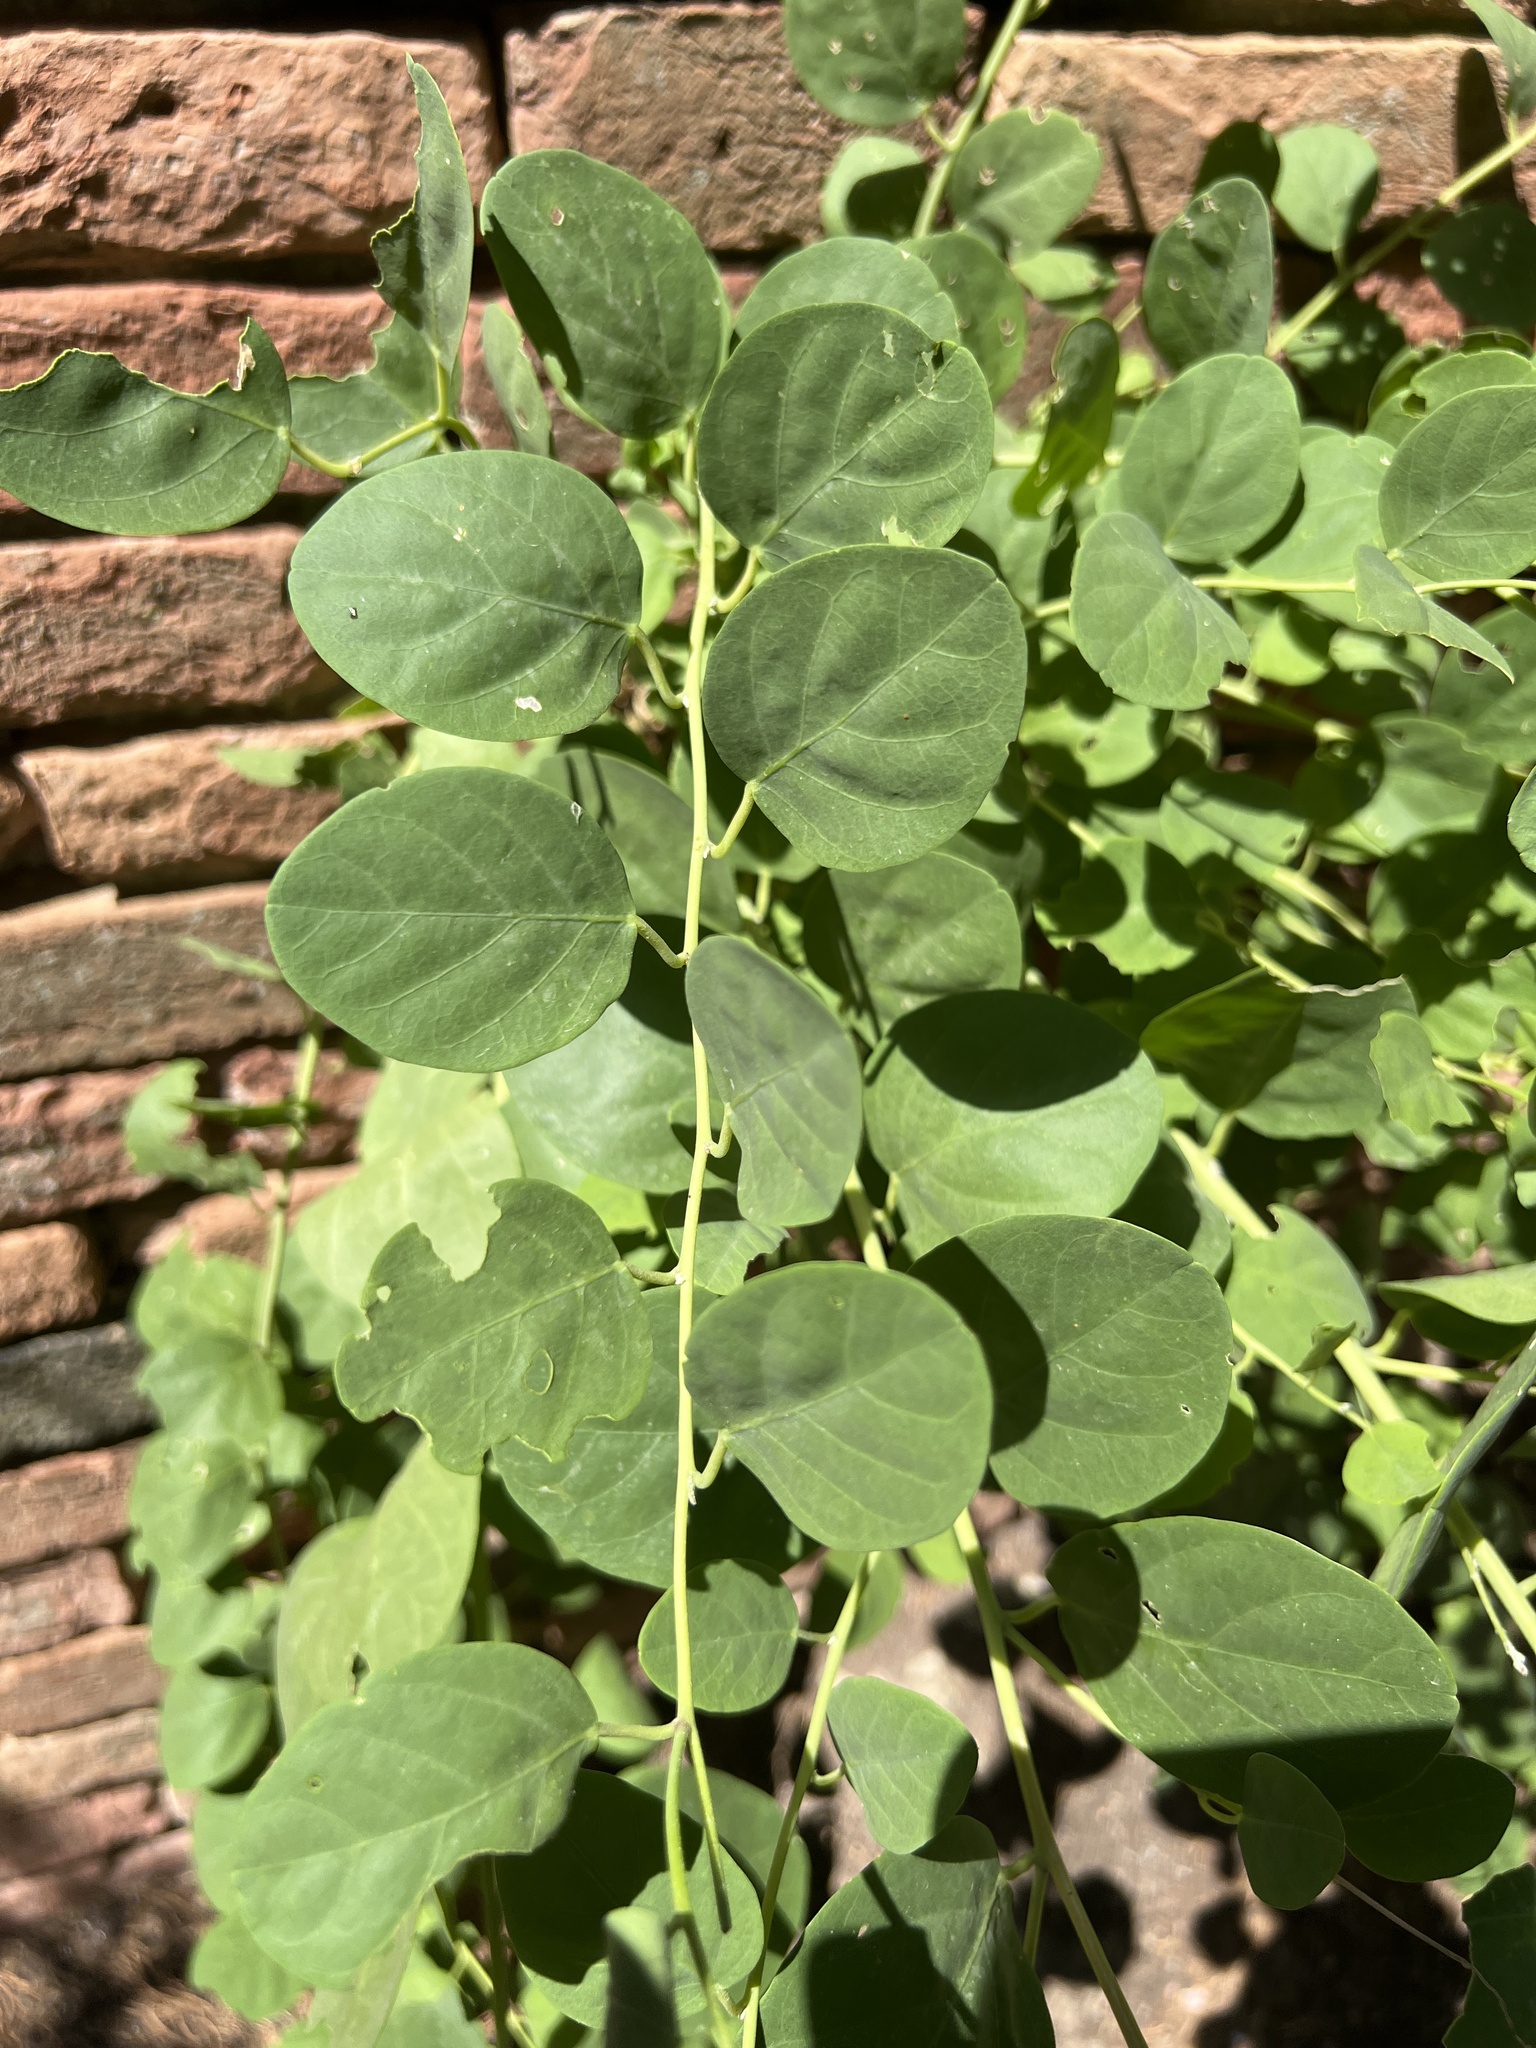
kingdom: Plantae
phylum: Tracheophyta
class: Magnoliopsida
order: Brassicales
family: Capparaceae
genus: Capparis
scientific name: Capparis orientalis
